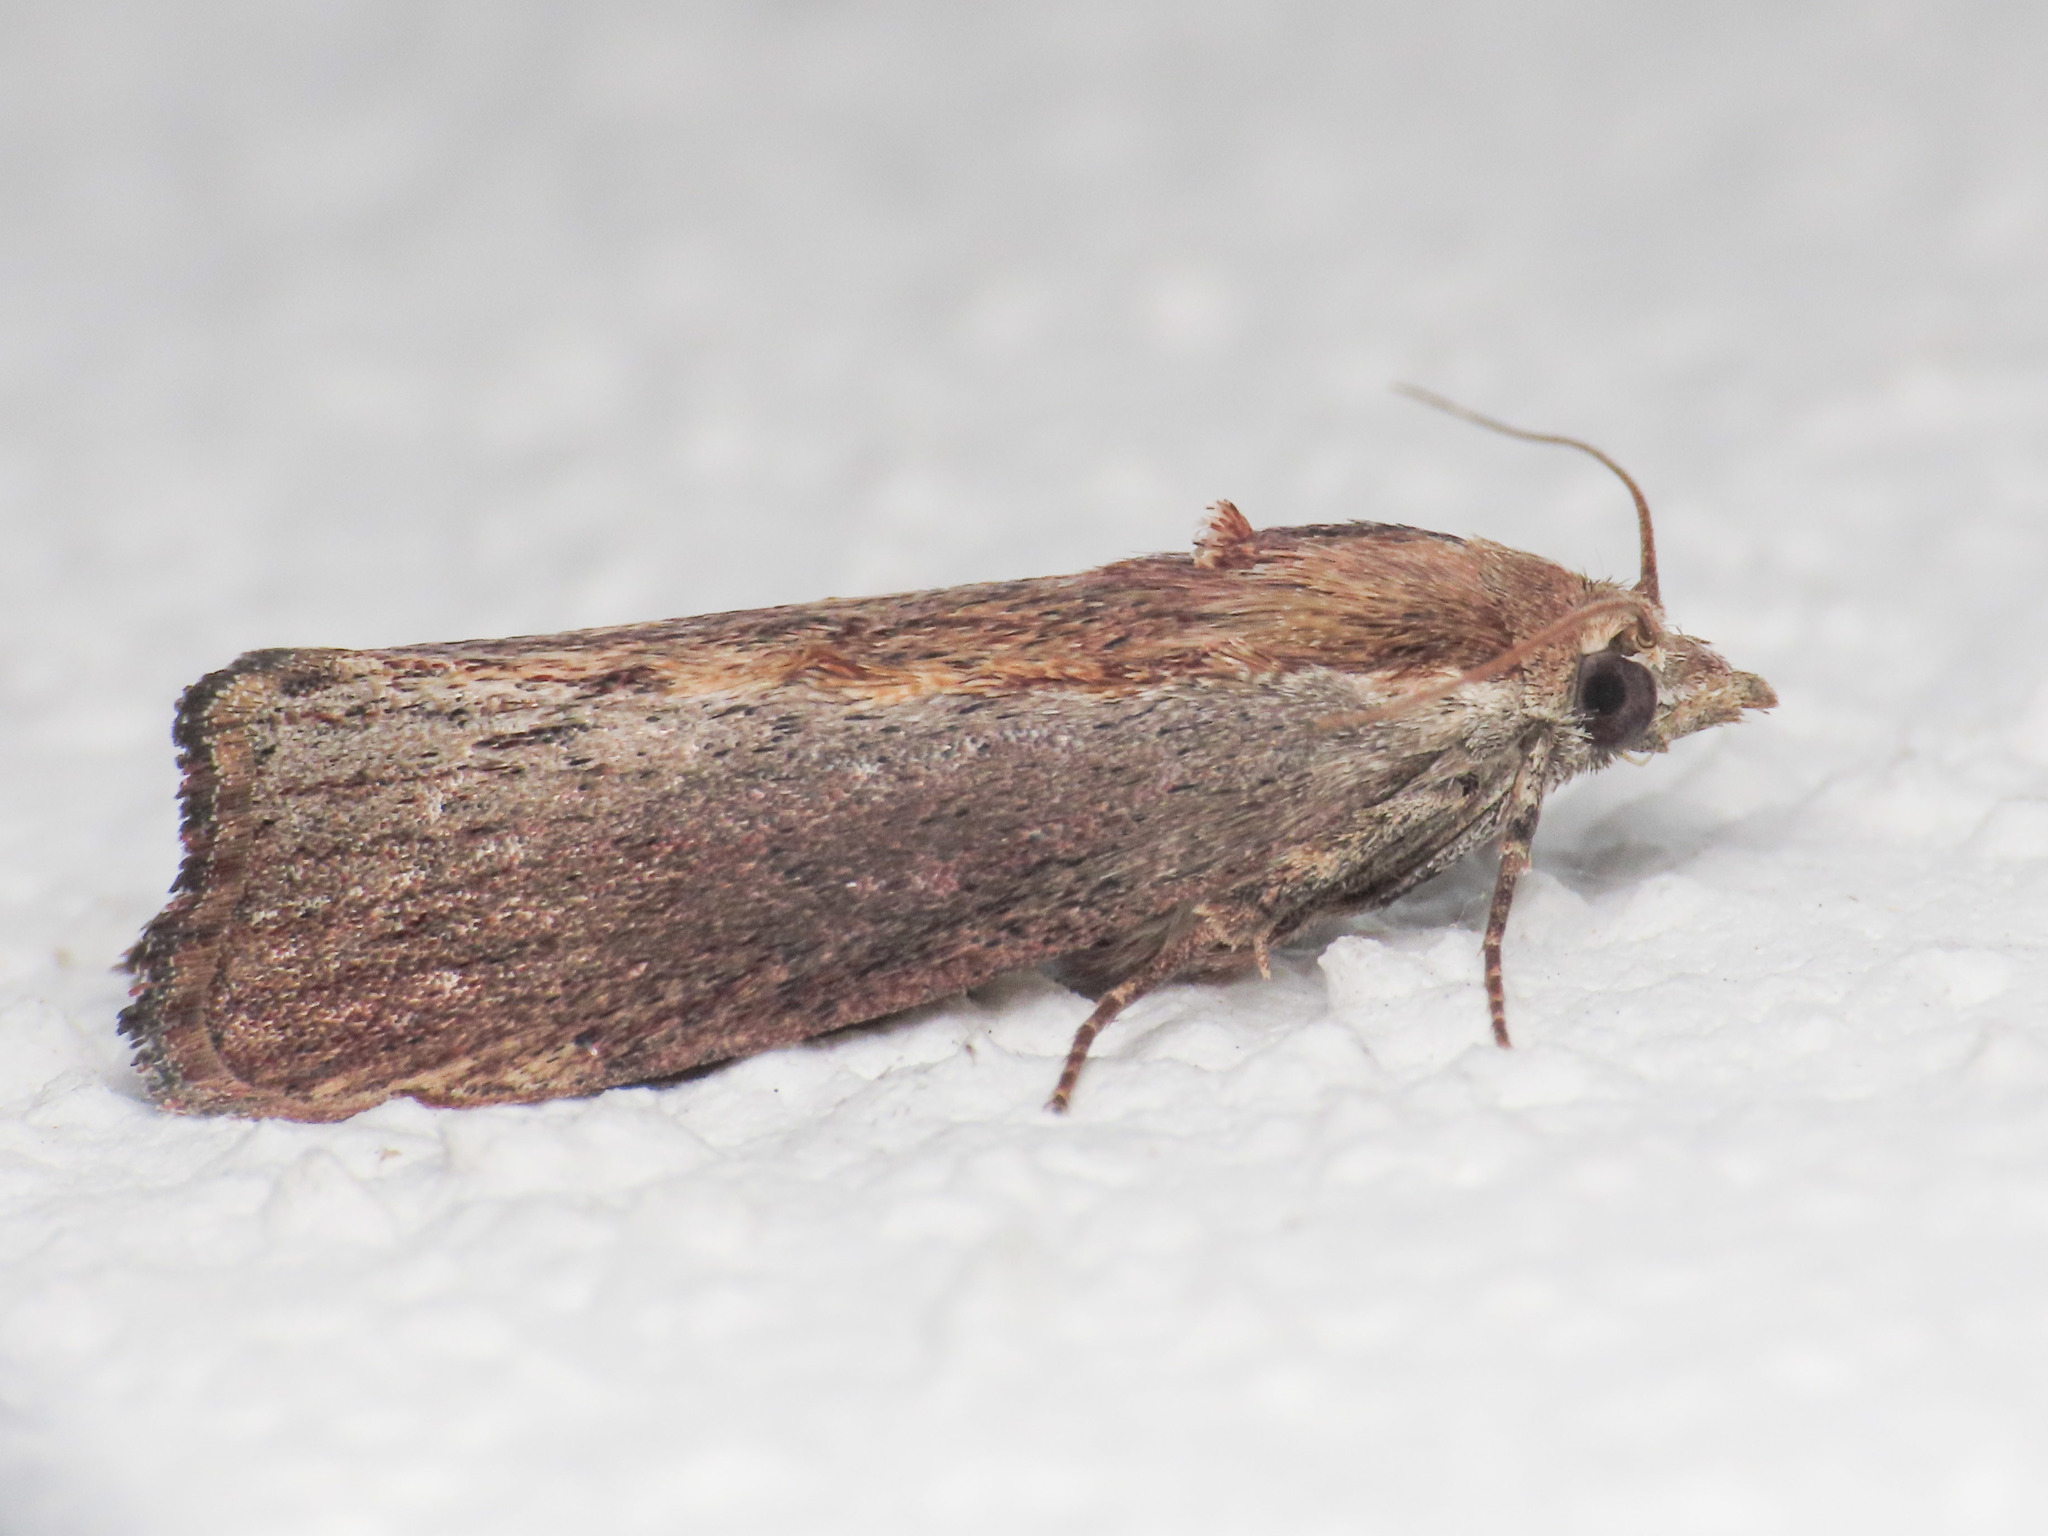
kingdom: Animalia
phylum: Arthropoda
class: Insecta
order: Lepidoptera
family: Pyralidae
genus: Galleria
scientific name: Galleria mellonella
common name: Greater wax moth
